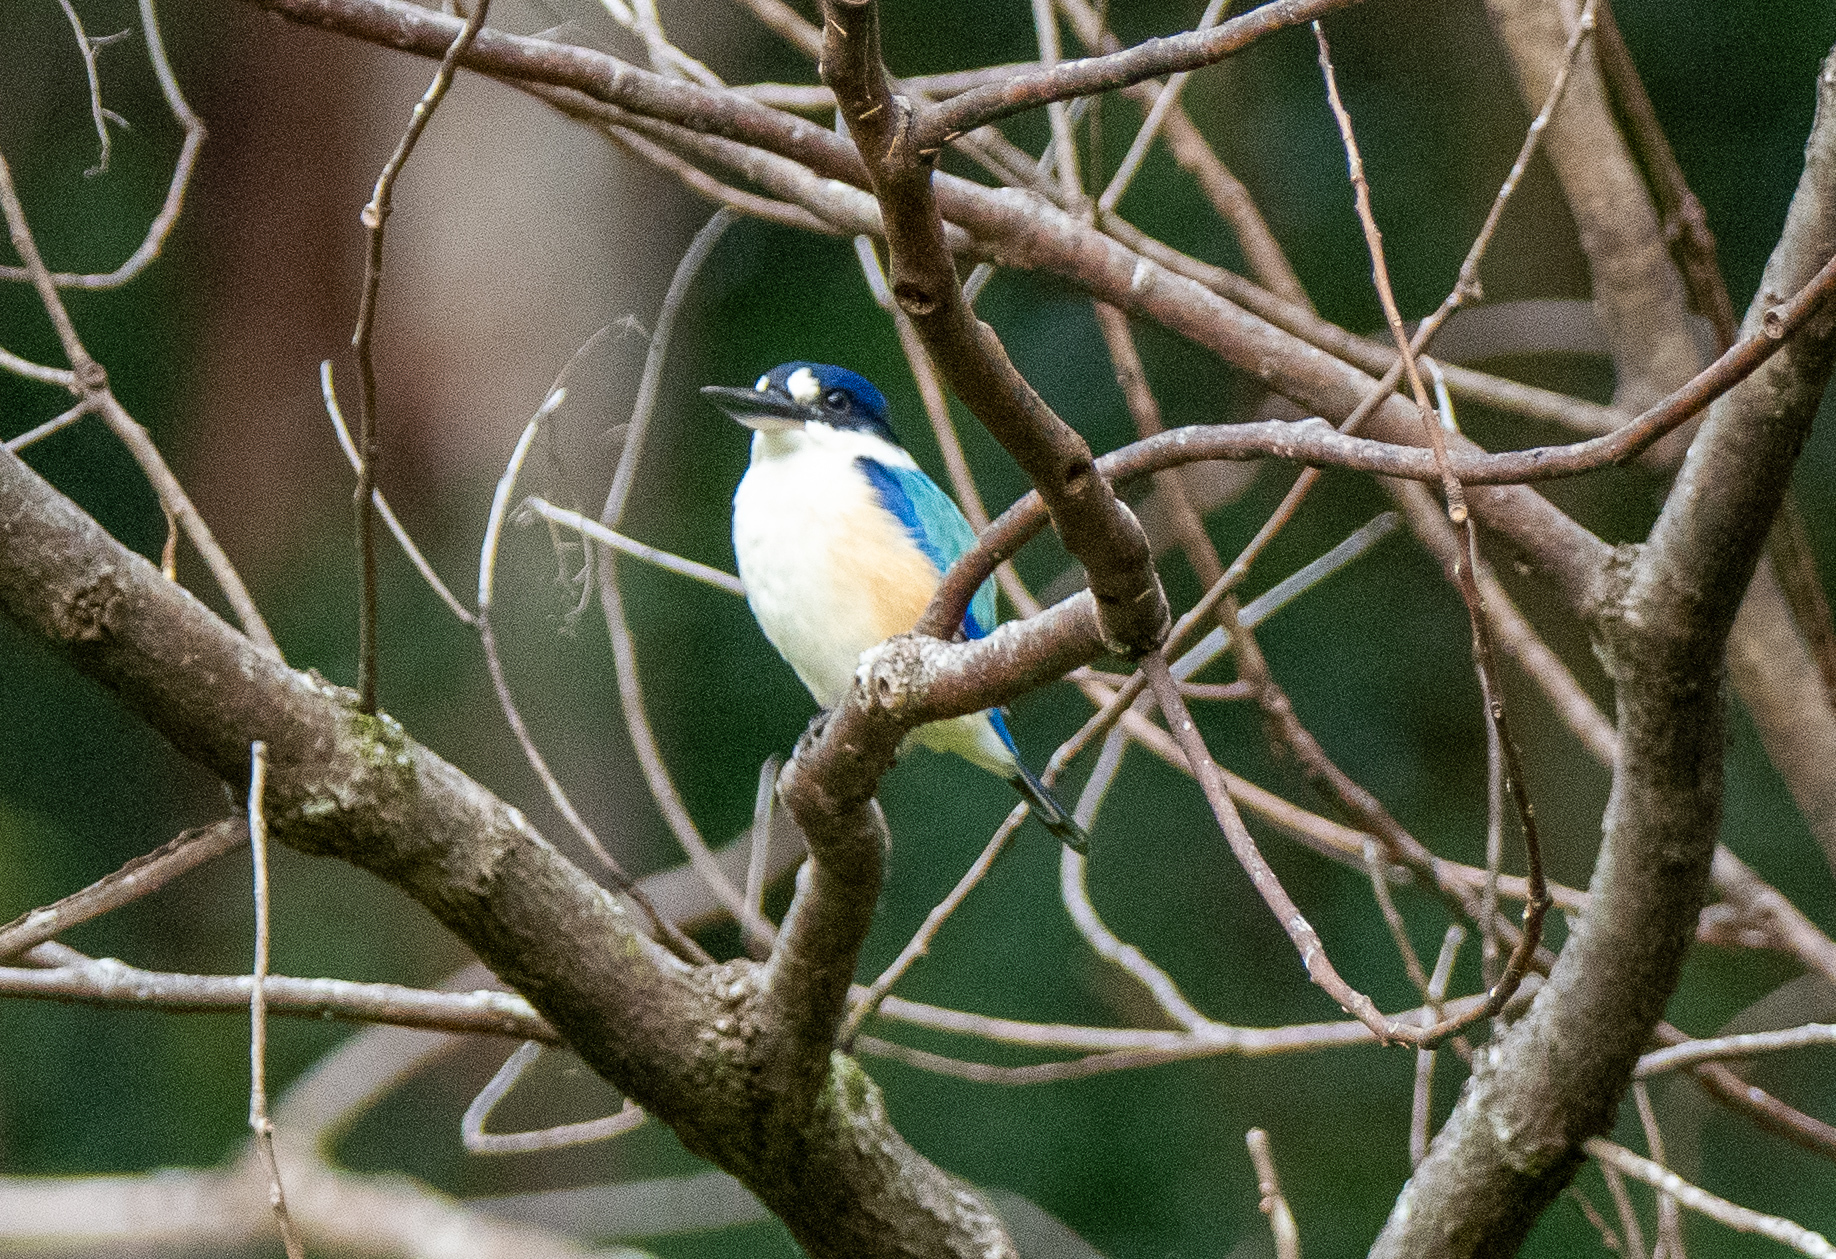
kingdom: Animalia
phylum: Chordata
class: Aves
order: Coraciiformes
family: Alcedinidae
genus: Todiramphus
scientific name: Todiramphus macleayii
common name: Forest kingfisher
